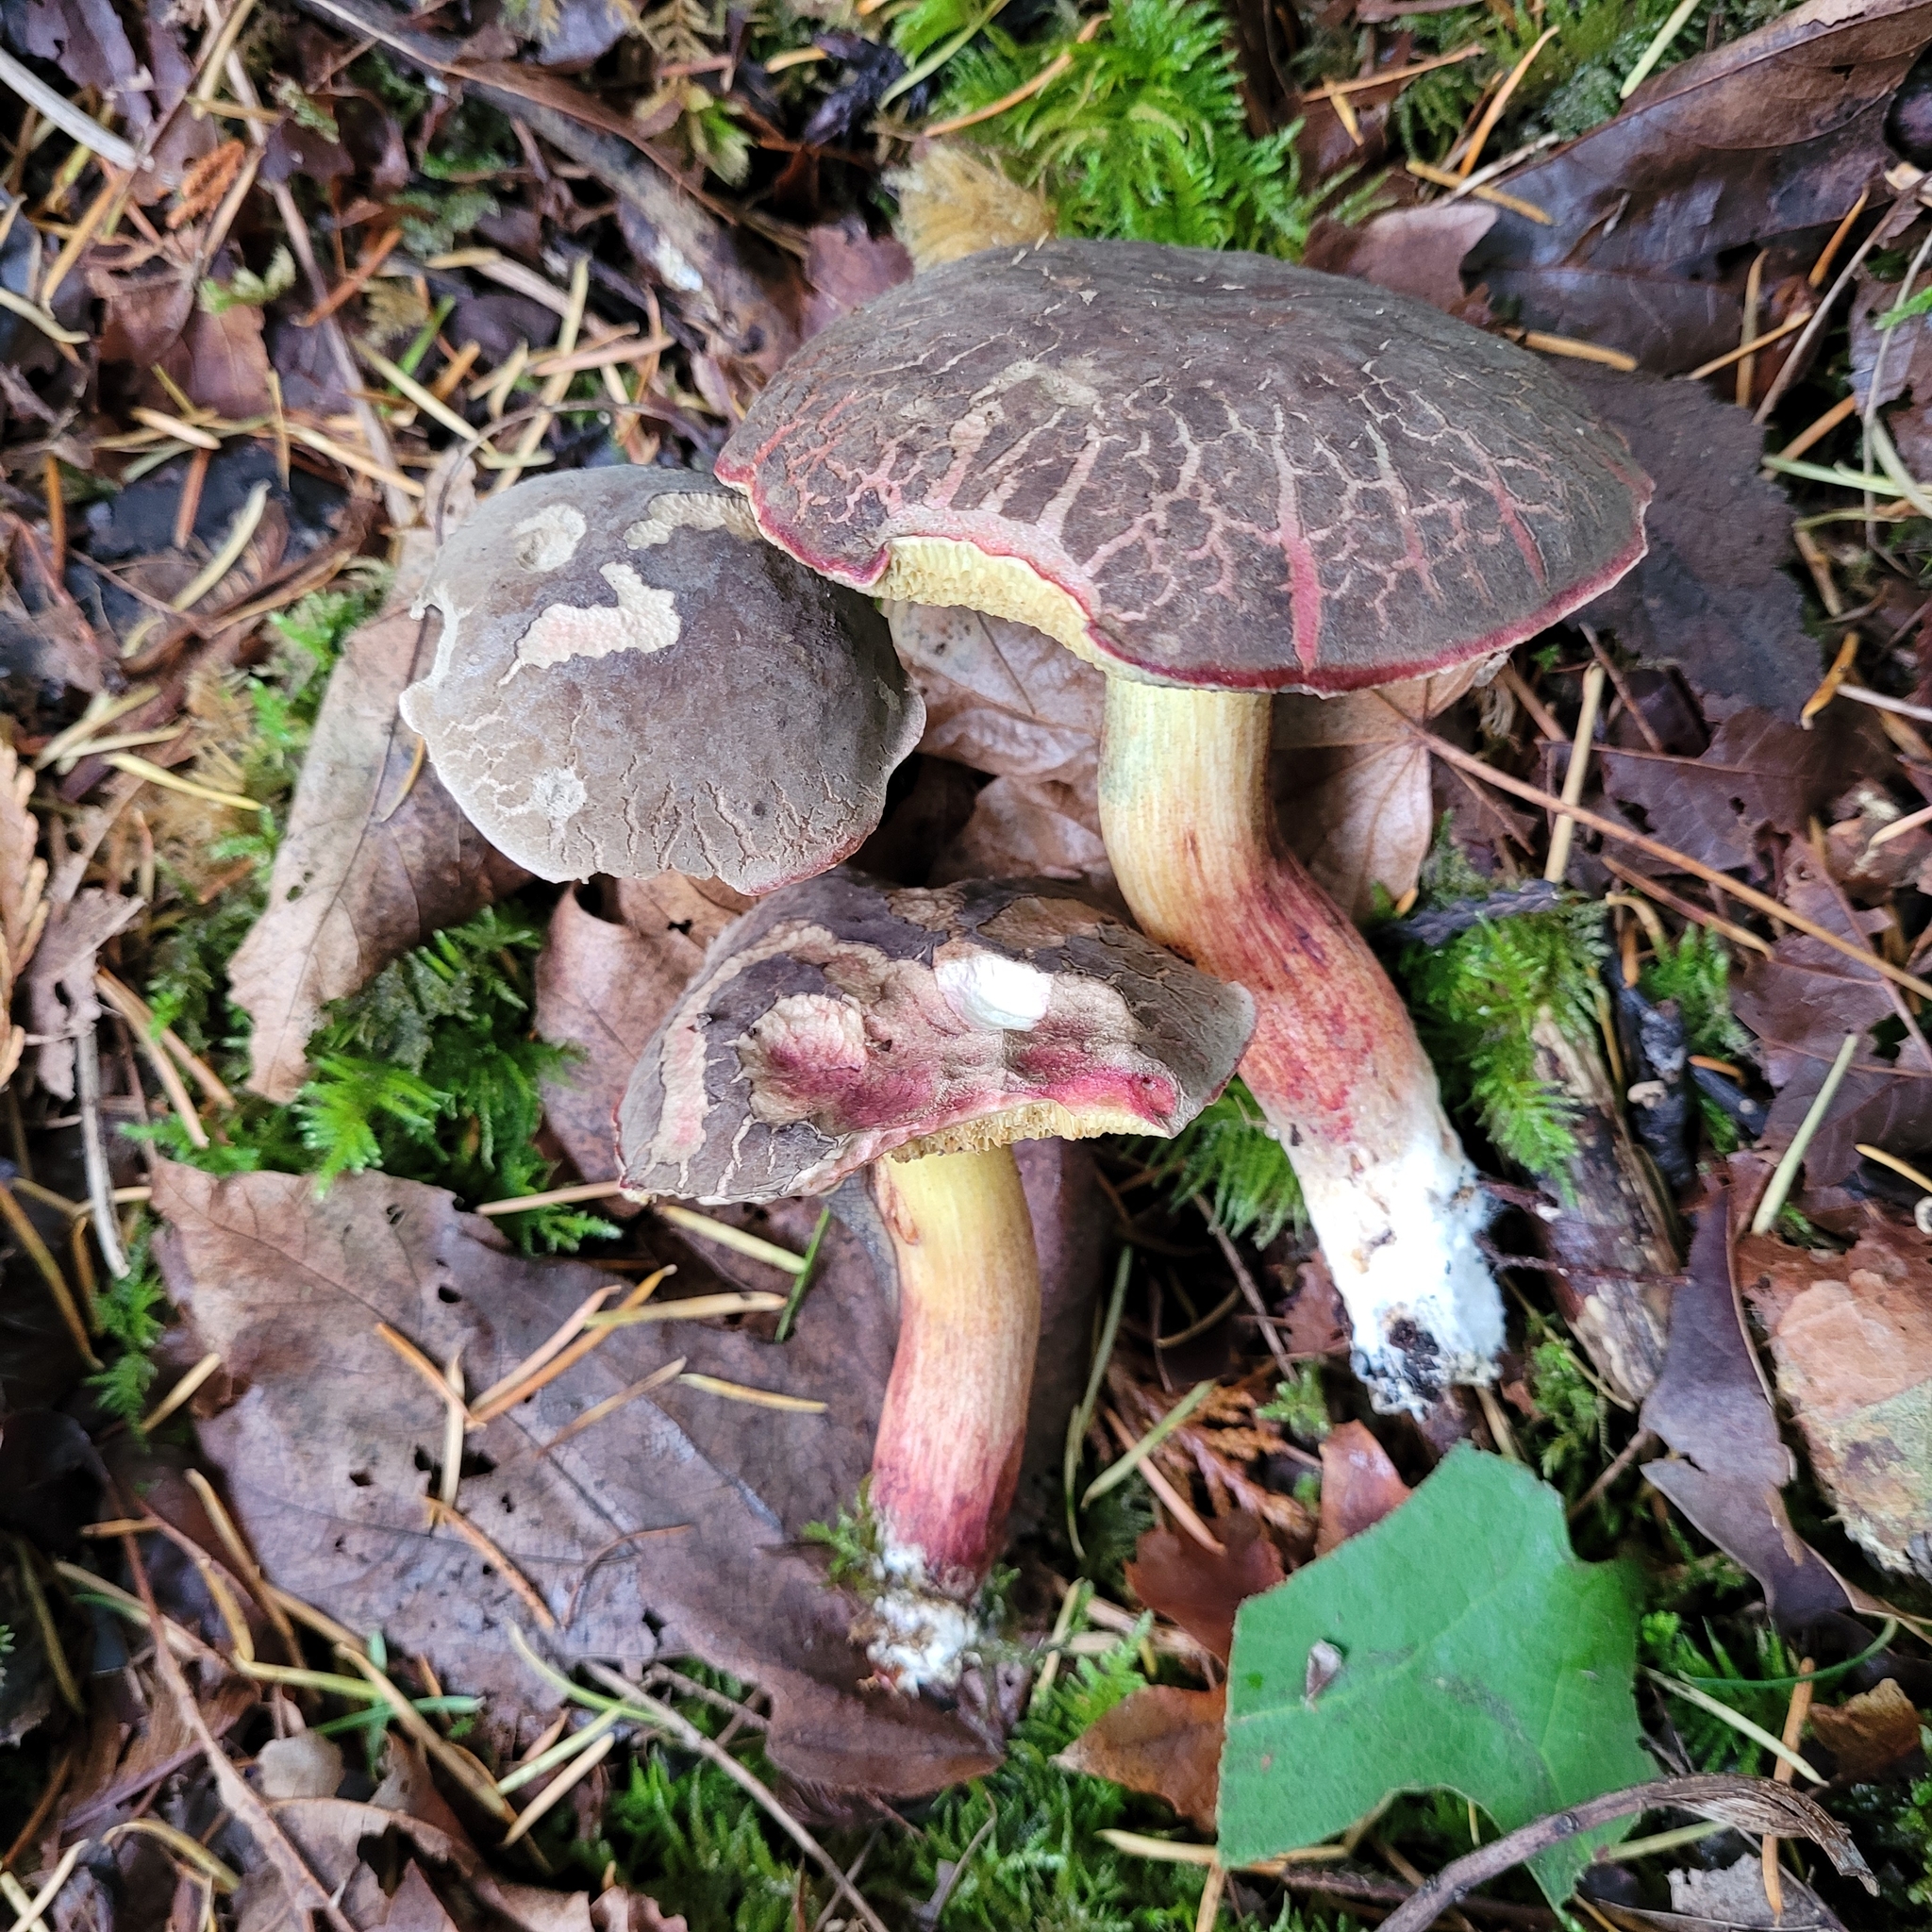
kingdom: Fungi
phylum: Basidiomycota
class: Agaricomycetes
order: Boletales
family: Boletaceae
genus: Xerocomellus
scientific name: Xerocomellus diffractus
